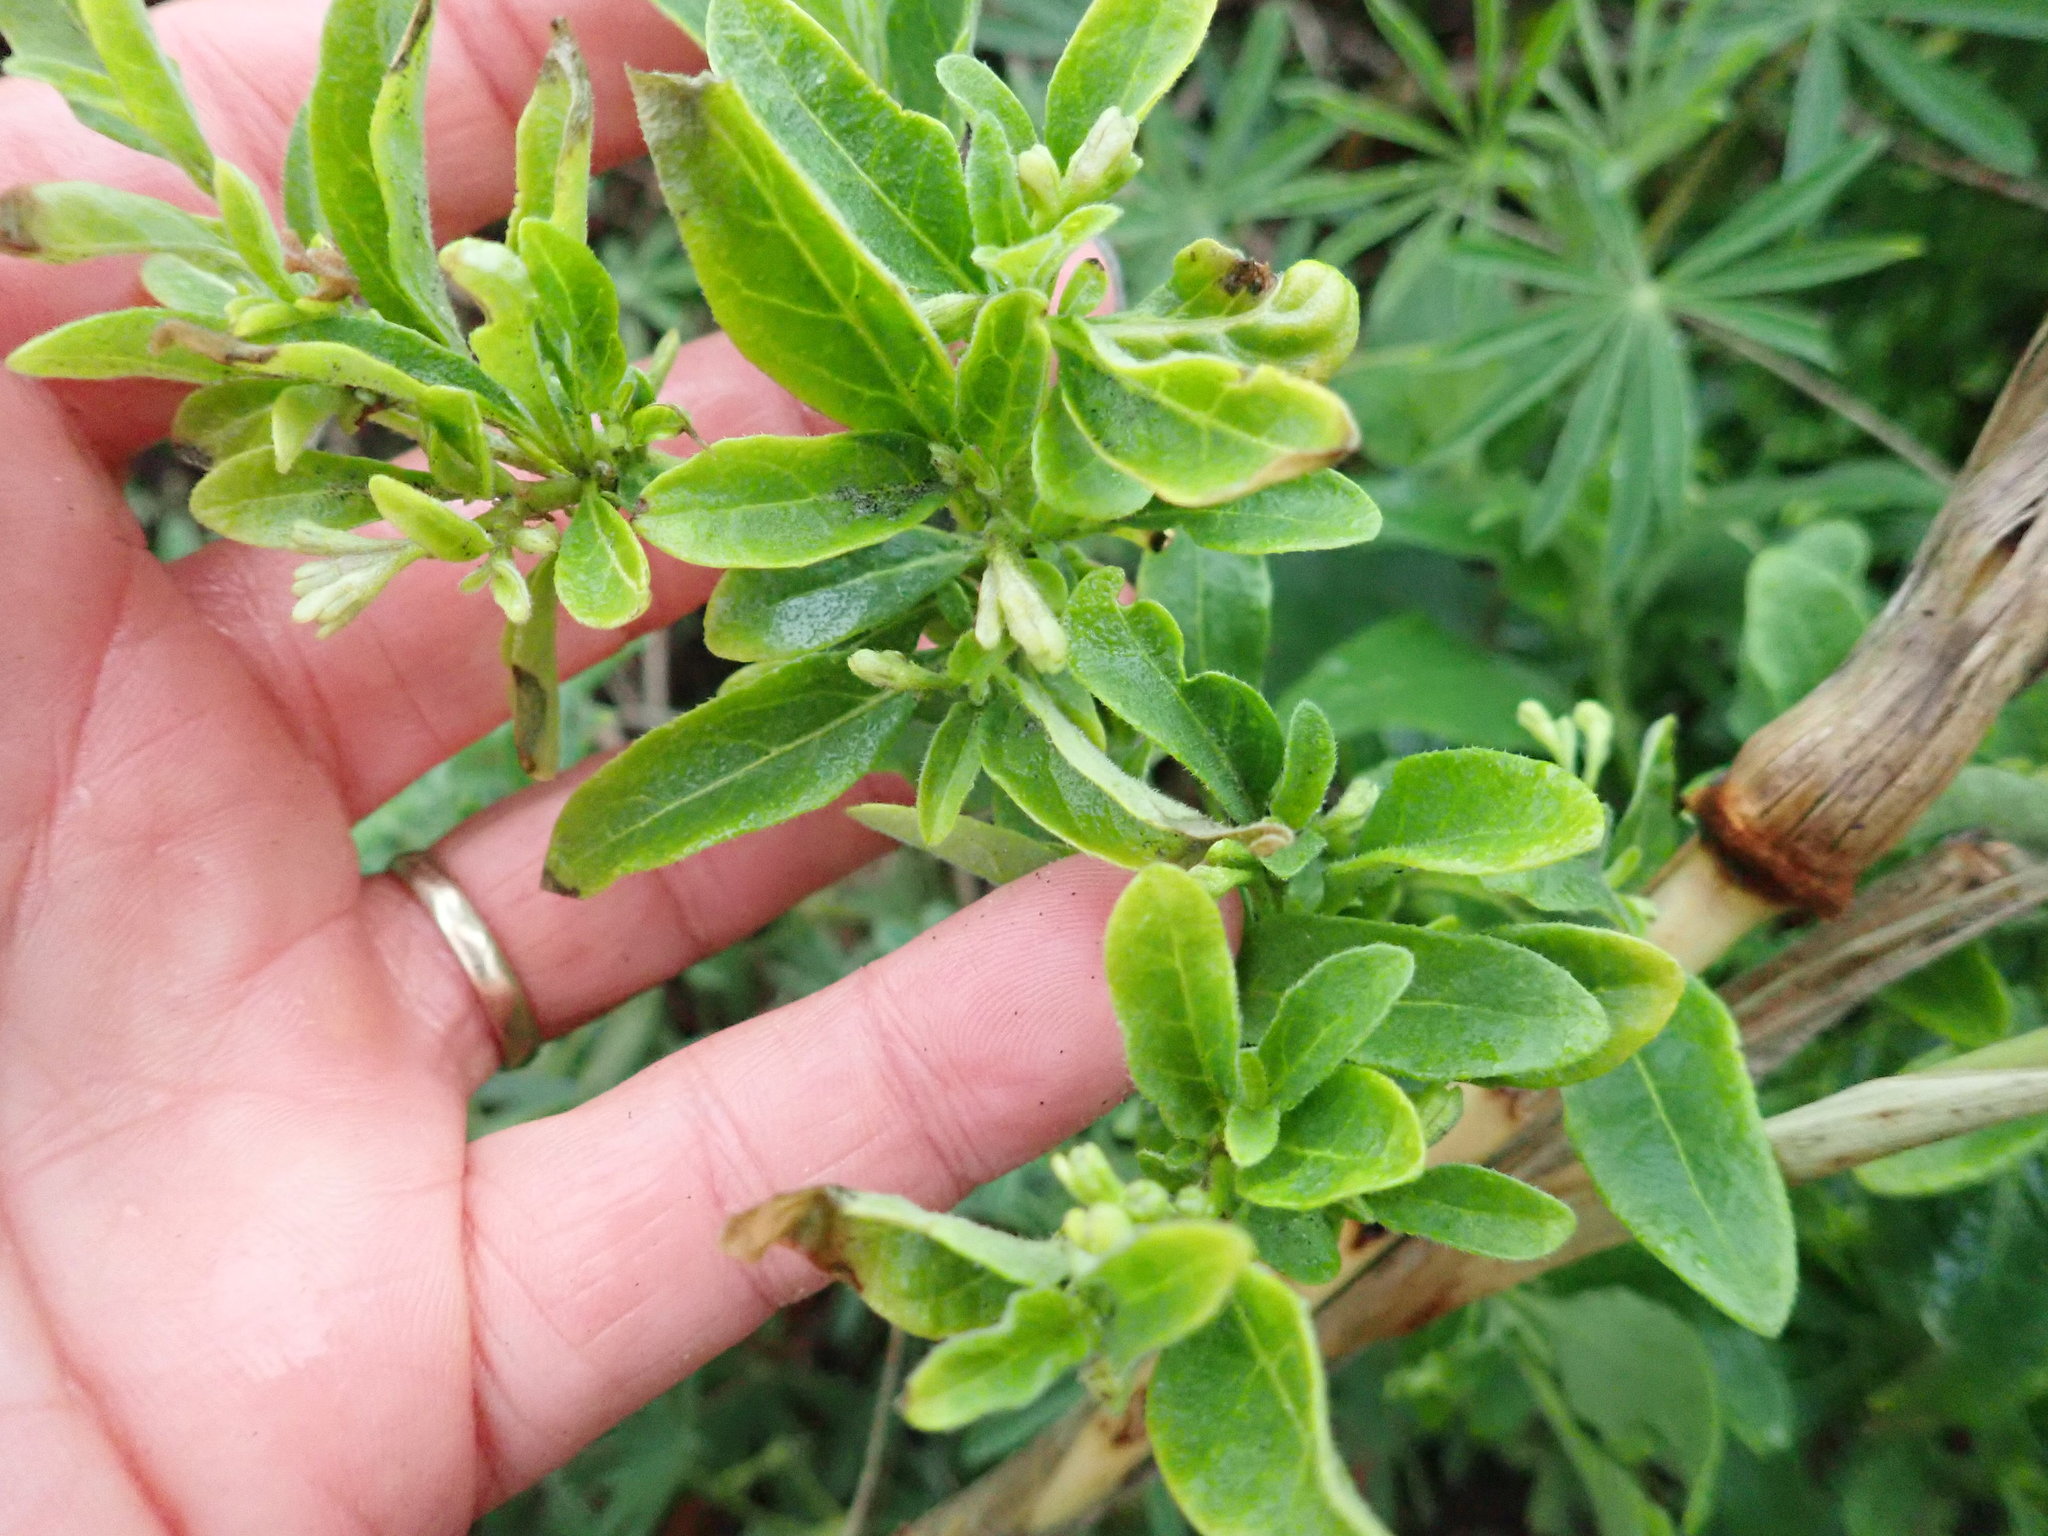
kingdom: Plantae
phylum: Tracheophyta
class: Magnoliopsida
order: Solanales
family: Solanaceae
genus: Solanum
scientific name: Solanum chenopodioides
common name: Tall nightshade
